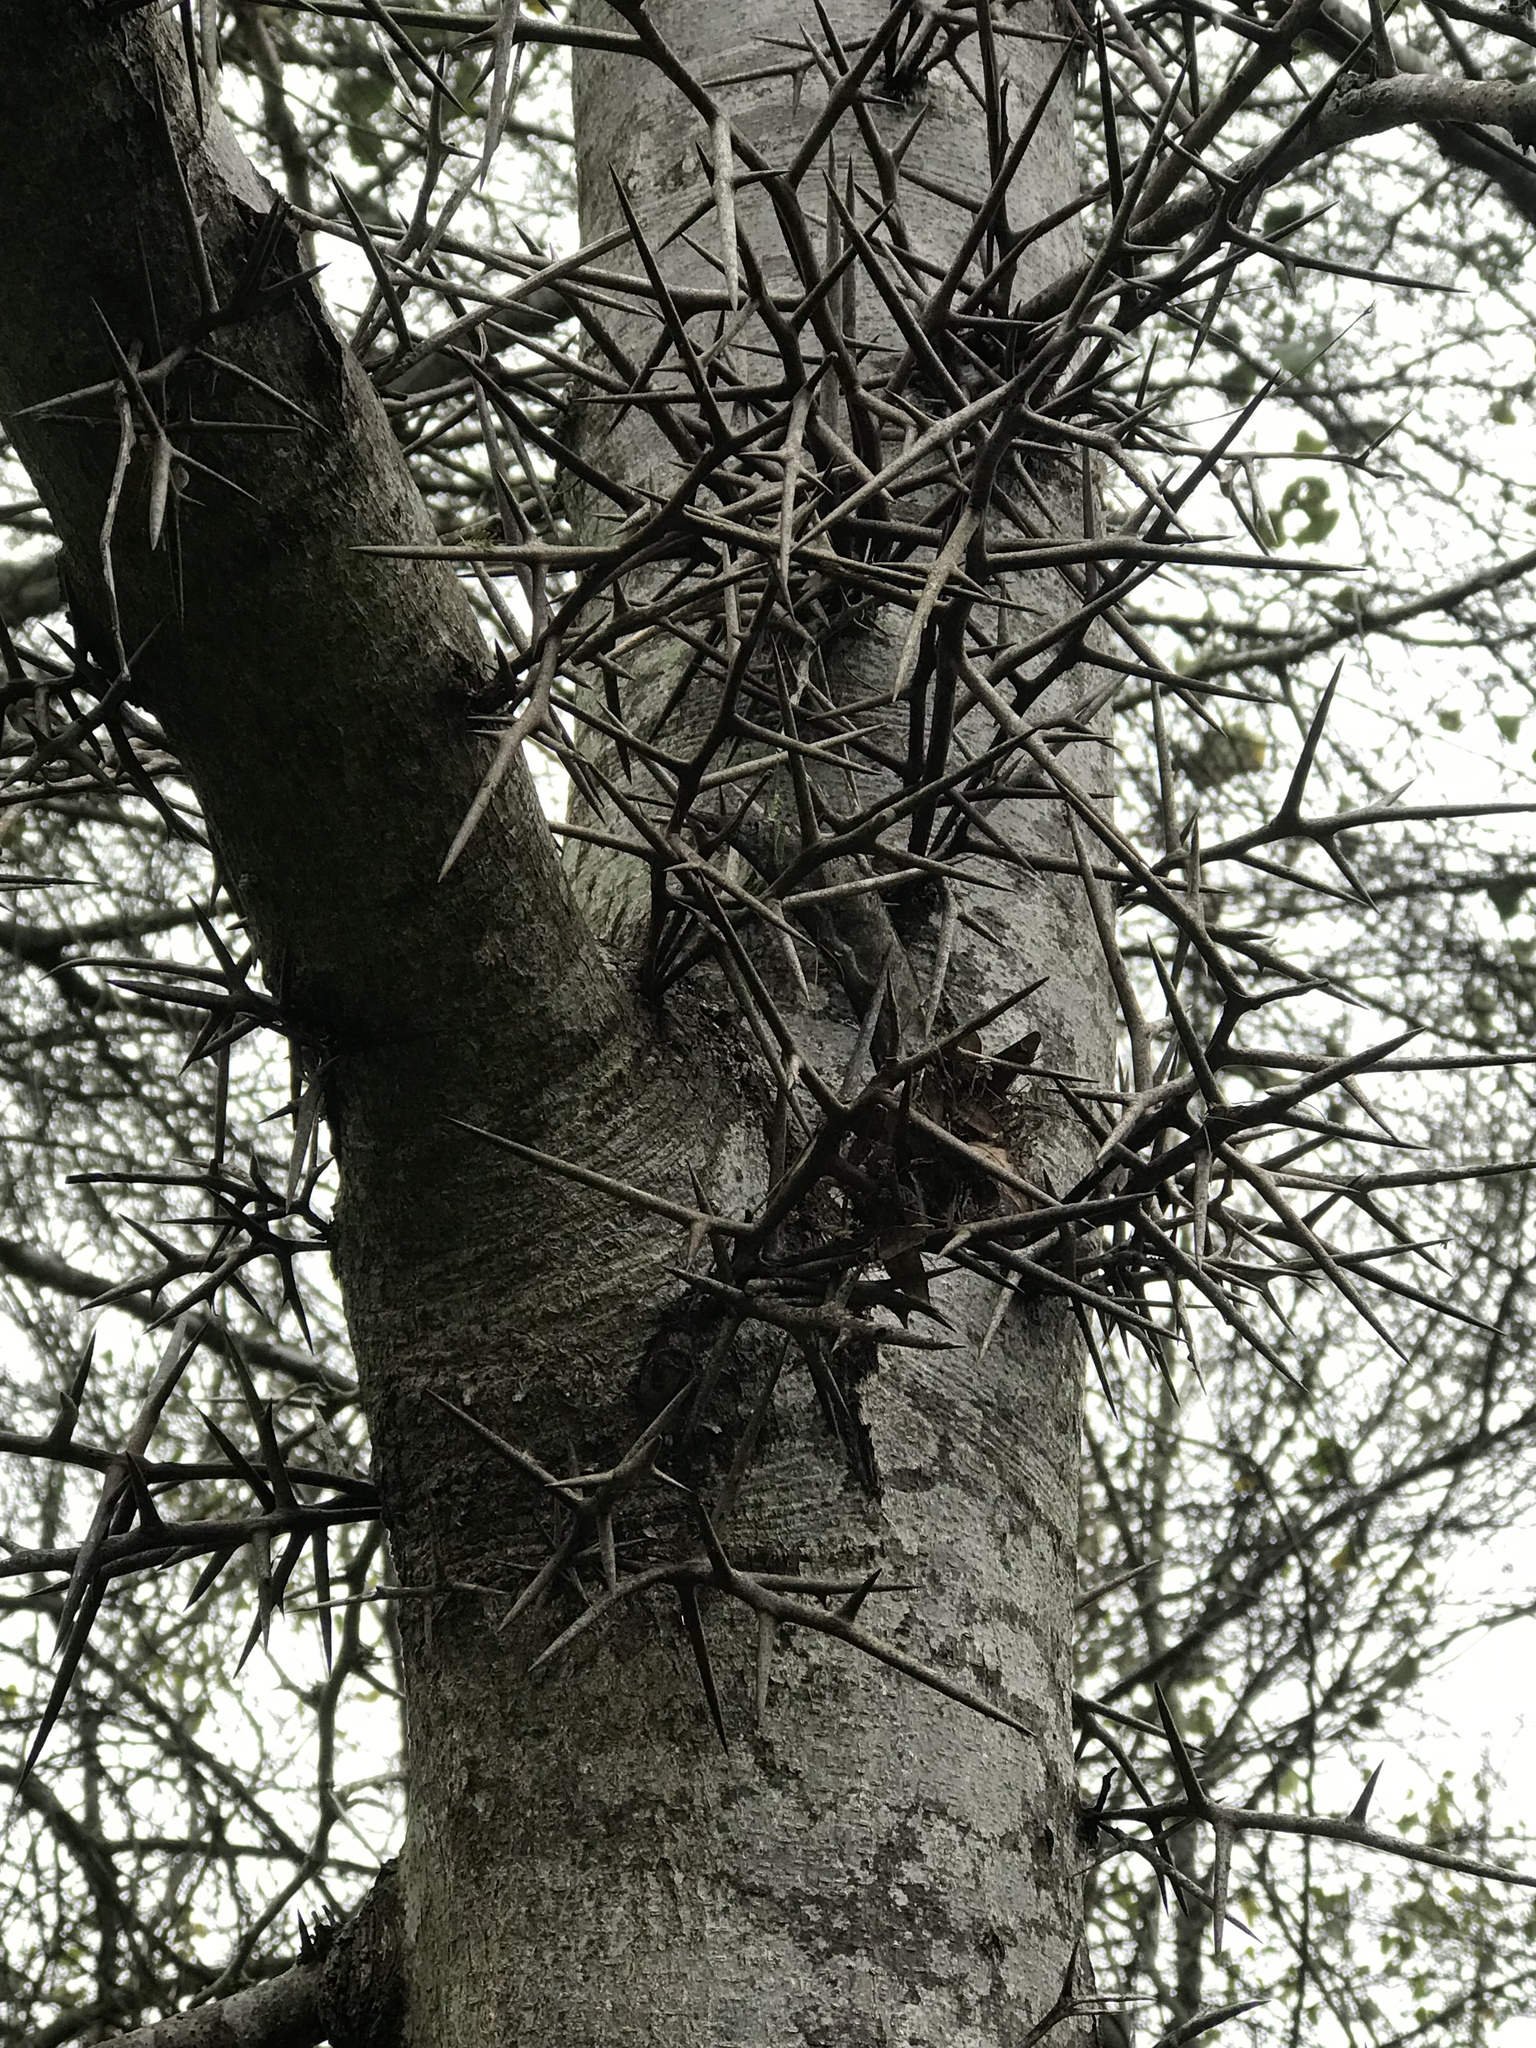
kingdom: Plantae
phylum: Tracheophyta
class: Magnoliopsida
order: Fabales
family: Fabaceae
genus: Gleditsia
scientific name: Gleditsia triacanthos
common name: Common honeylocust
